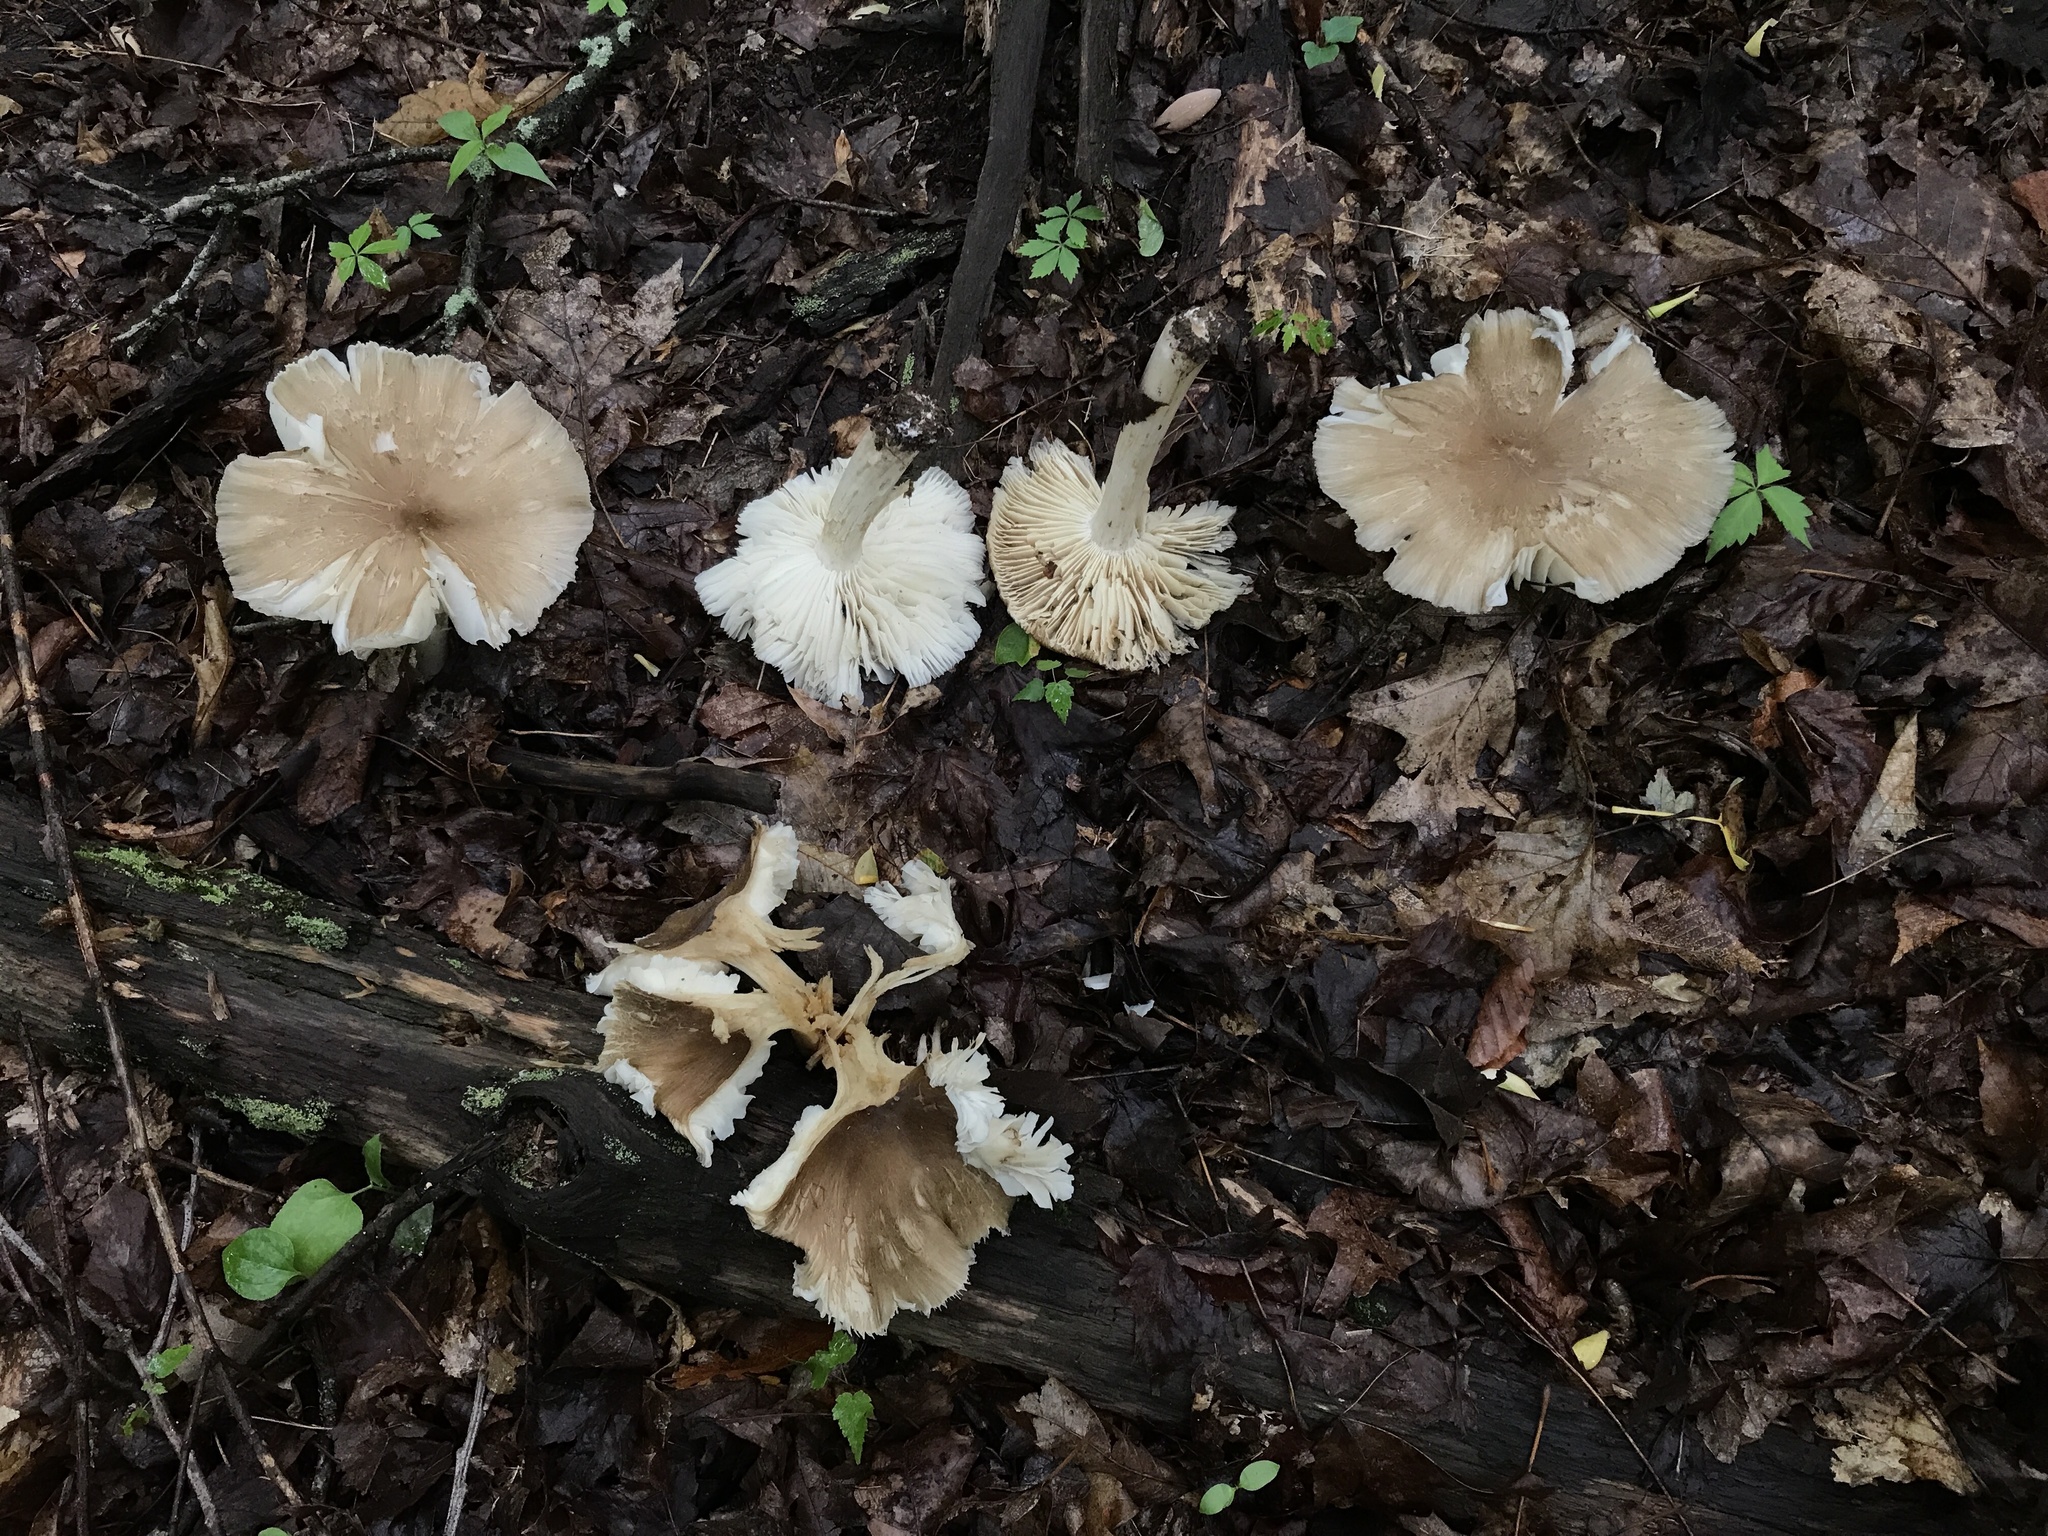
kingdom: Fungi
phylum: Basidiomycota
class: Agaricomycetes
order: Agaricales
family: Tricholomataceae
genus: Megacollybia
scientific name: Megacollybia rodmanii
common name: Eastern american platterful mushroom
